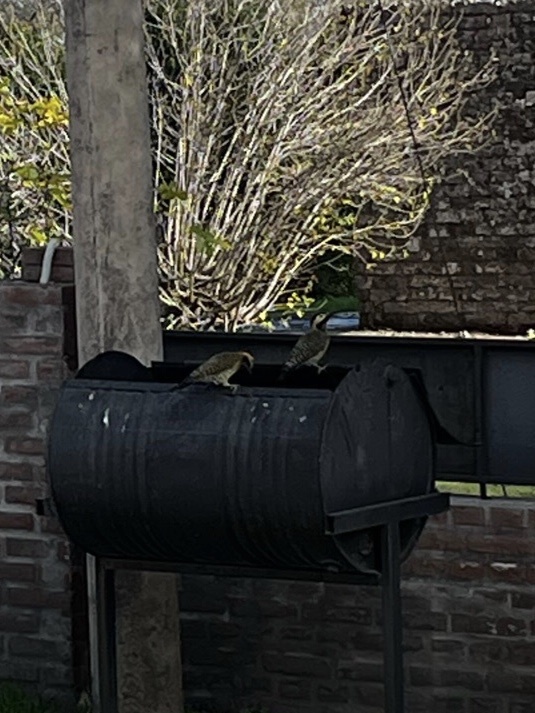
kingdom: Animalia
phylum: Chordata
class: Aves
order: Piciformes
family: Picidae
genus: Colaptes
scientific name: Colaptes melanochloros
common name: Green-barred woodpecker
